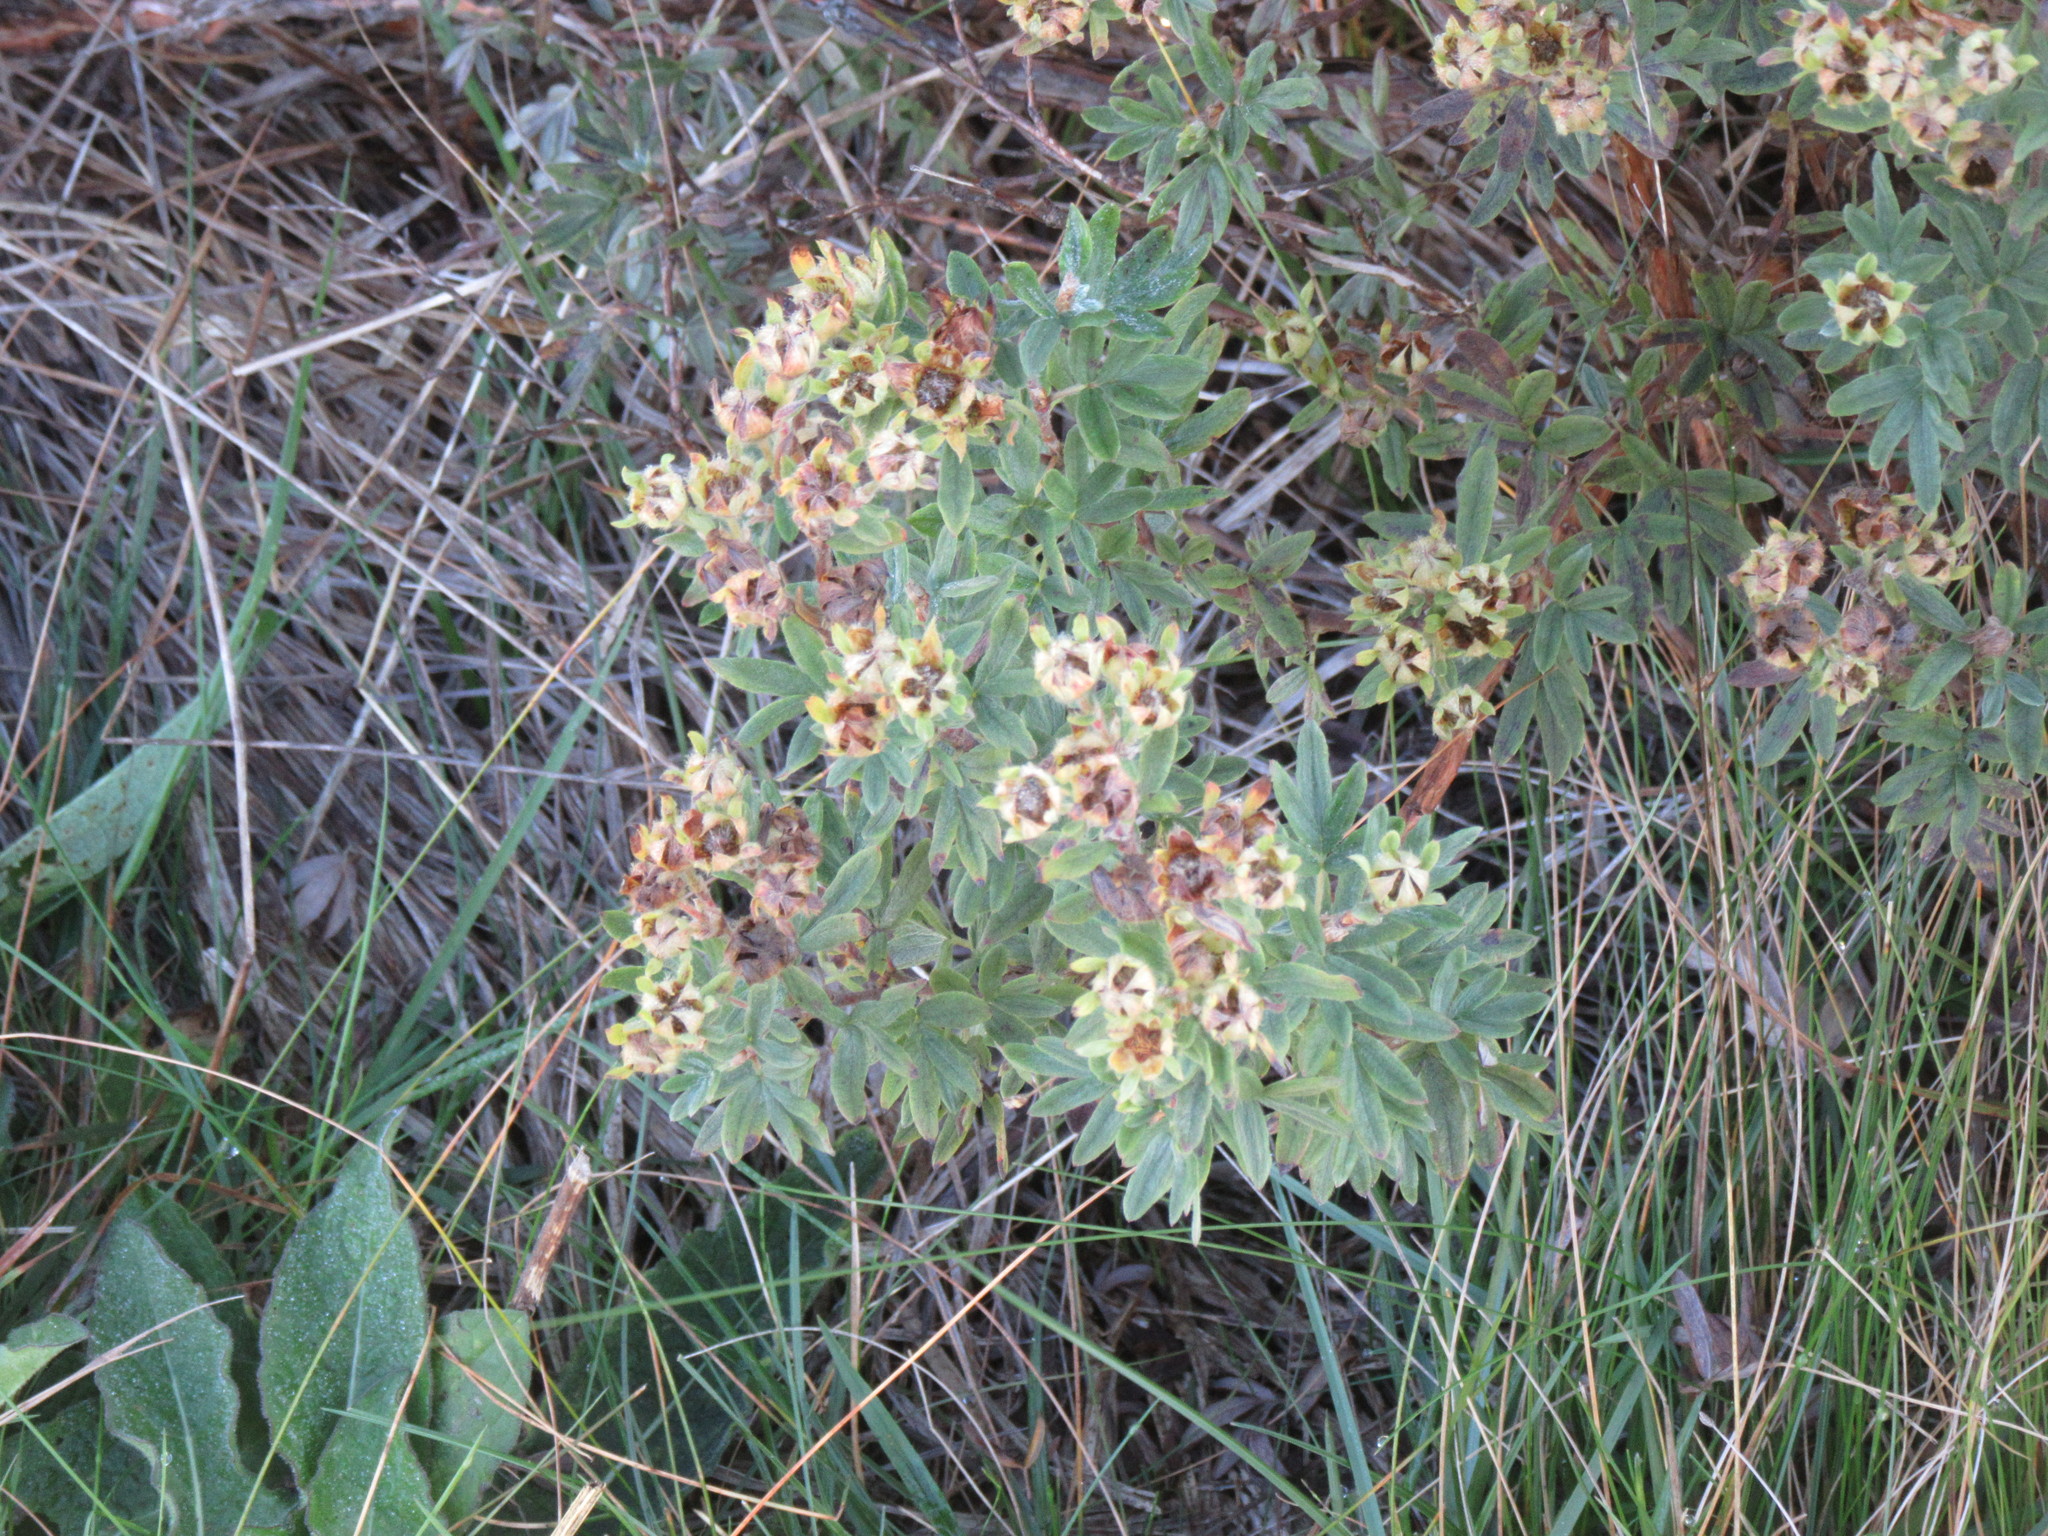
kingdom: Plantae
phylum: Tracheophyta
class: Magnoliopsida
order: Rosales
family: Rosaceae
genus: Dasiphora
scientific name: Dasiphora fruticosa
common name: Shrubby cinquefoil
